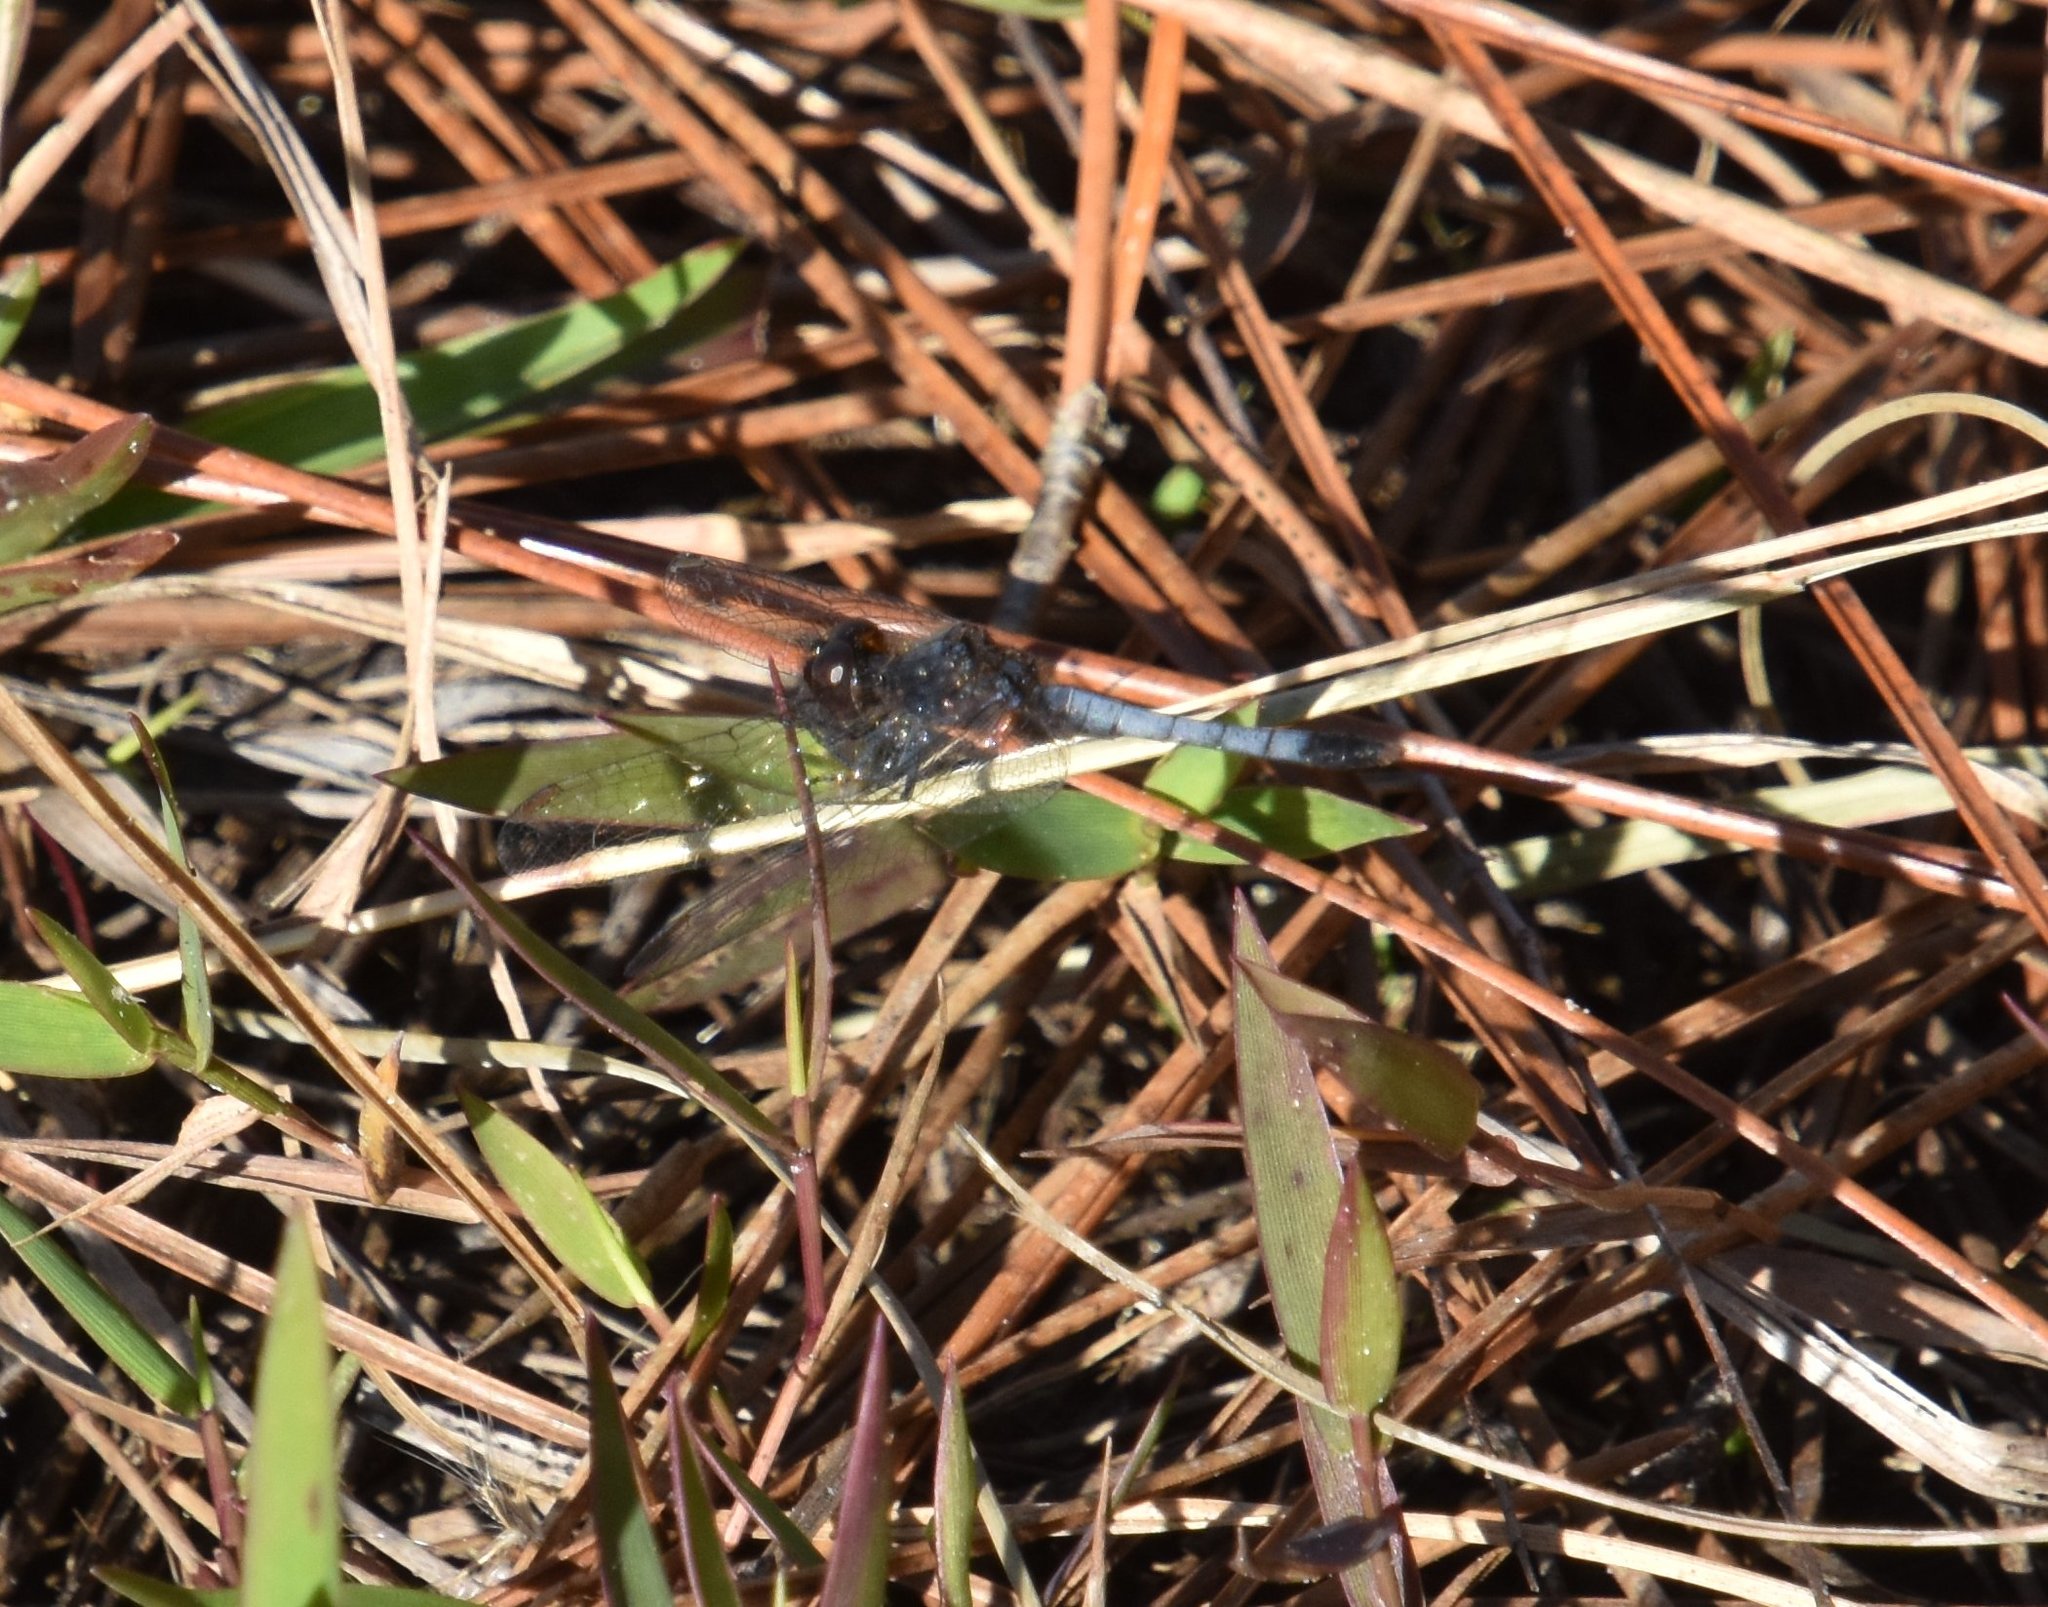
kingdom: Animalia
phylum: Arthropoda
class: Insecta
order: Odonata
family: Libellulidae
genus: Erythrodiplax
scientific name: Erythrodiplax minuscula
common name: Little blue dragonlet
